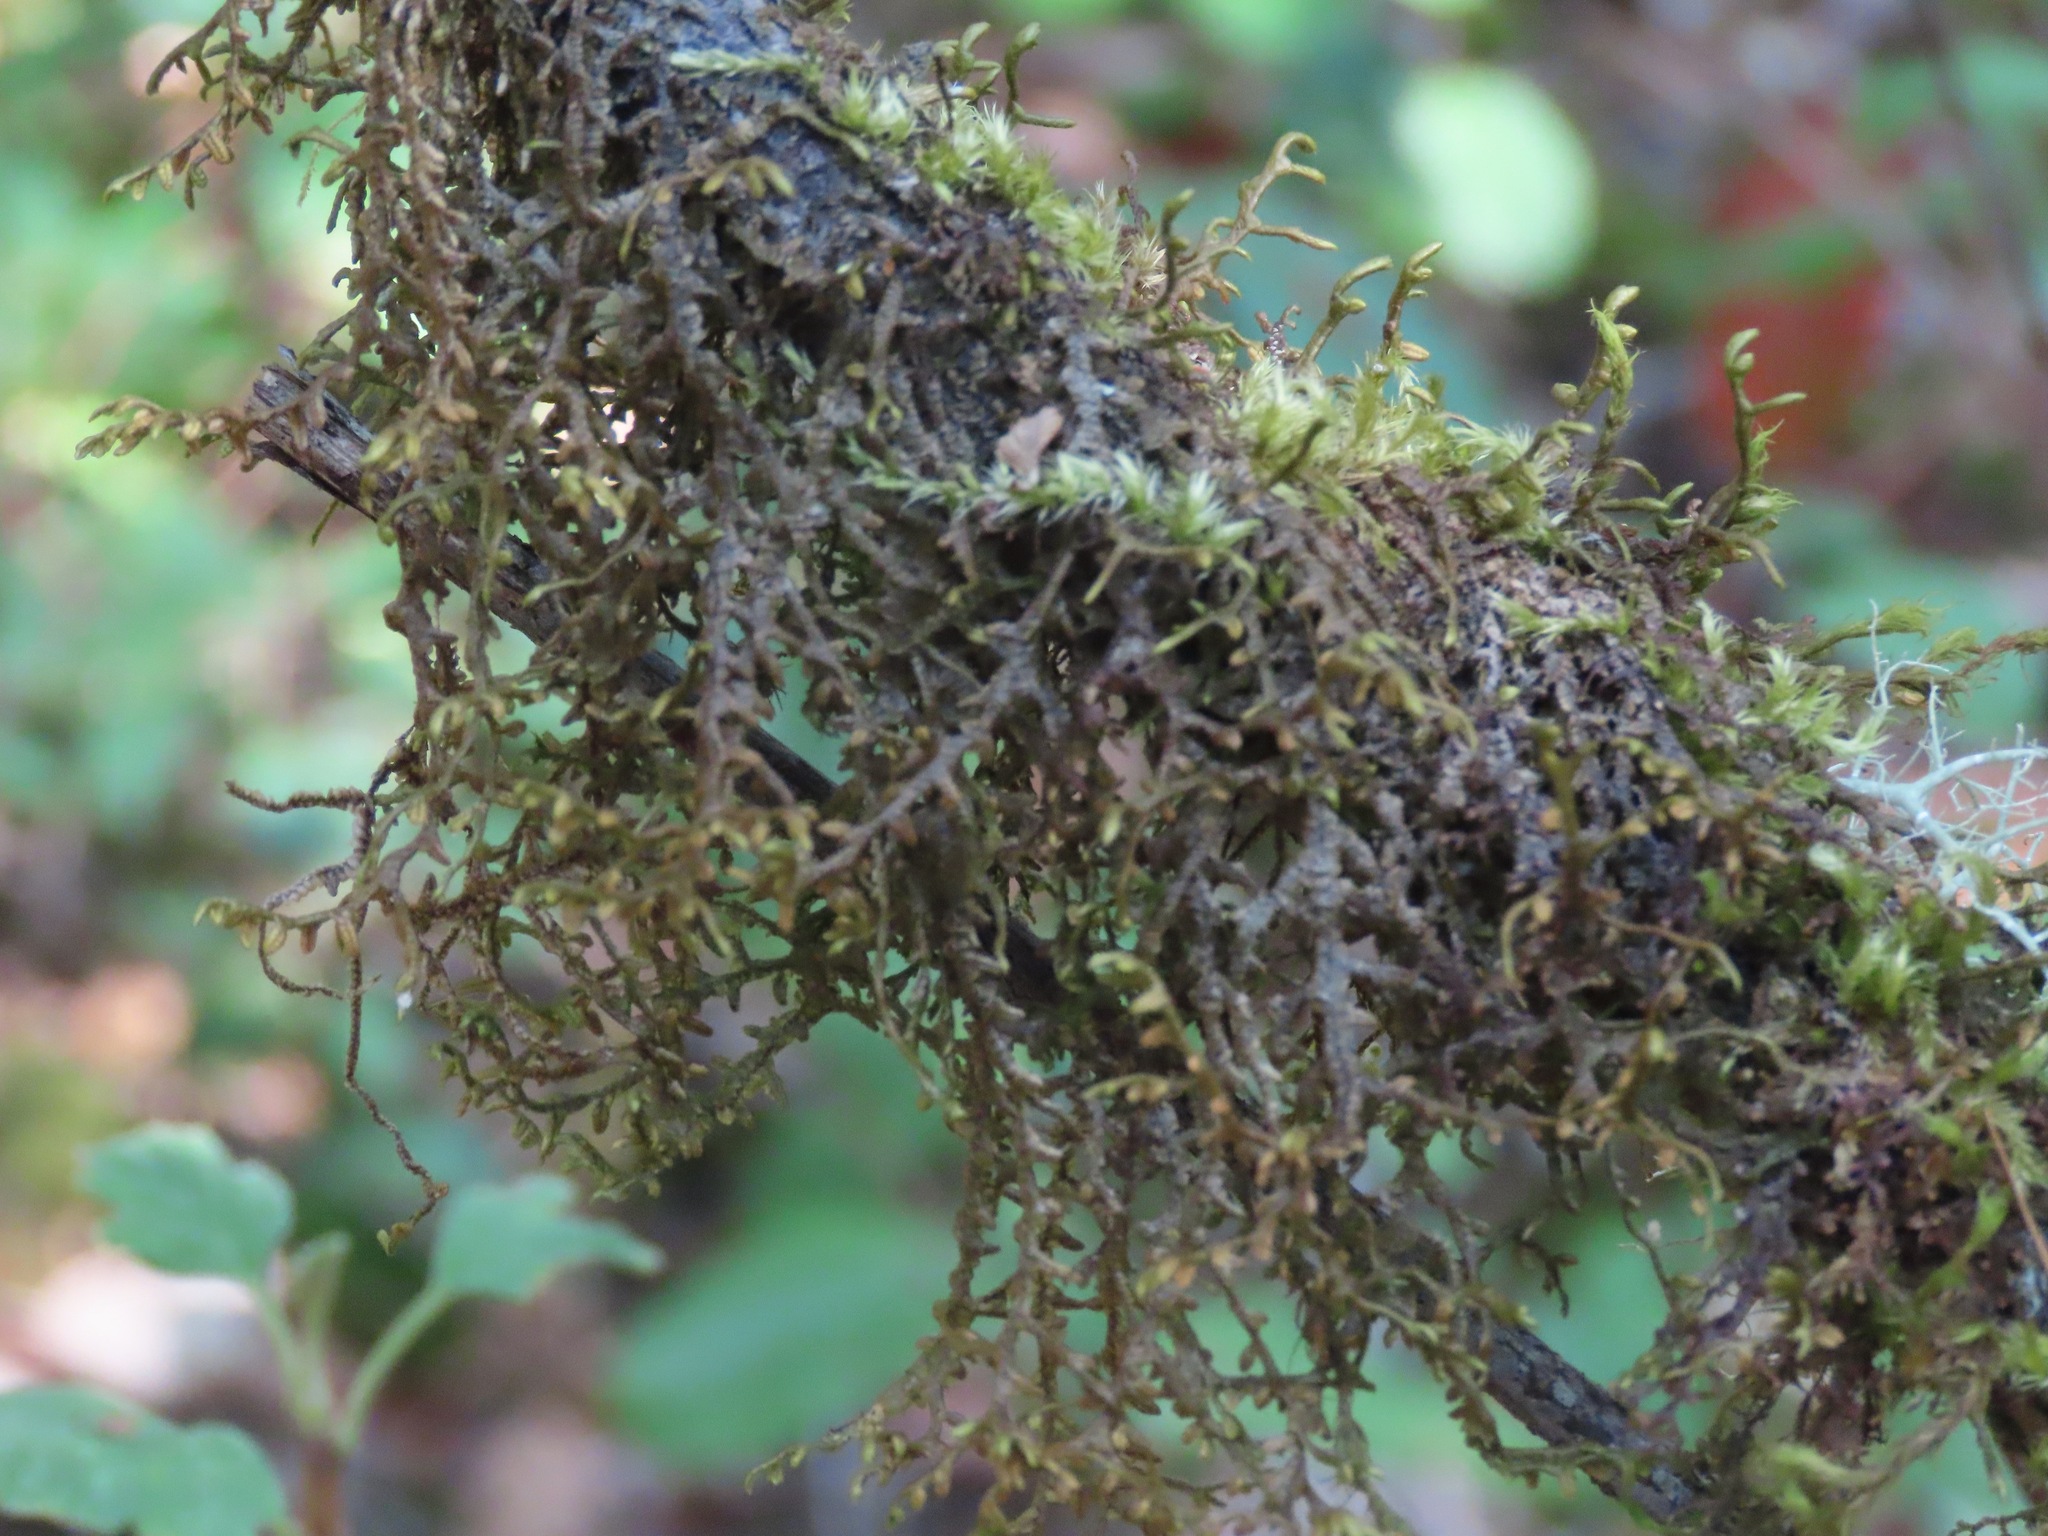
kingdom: Plantae
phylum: Marchantiophyta
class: Jungermanniopsida
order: Porellales
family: Porellaceae
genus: Porella
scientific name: Porella navicularis
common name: Tree ruffle liverwort
